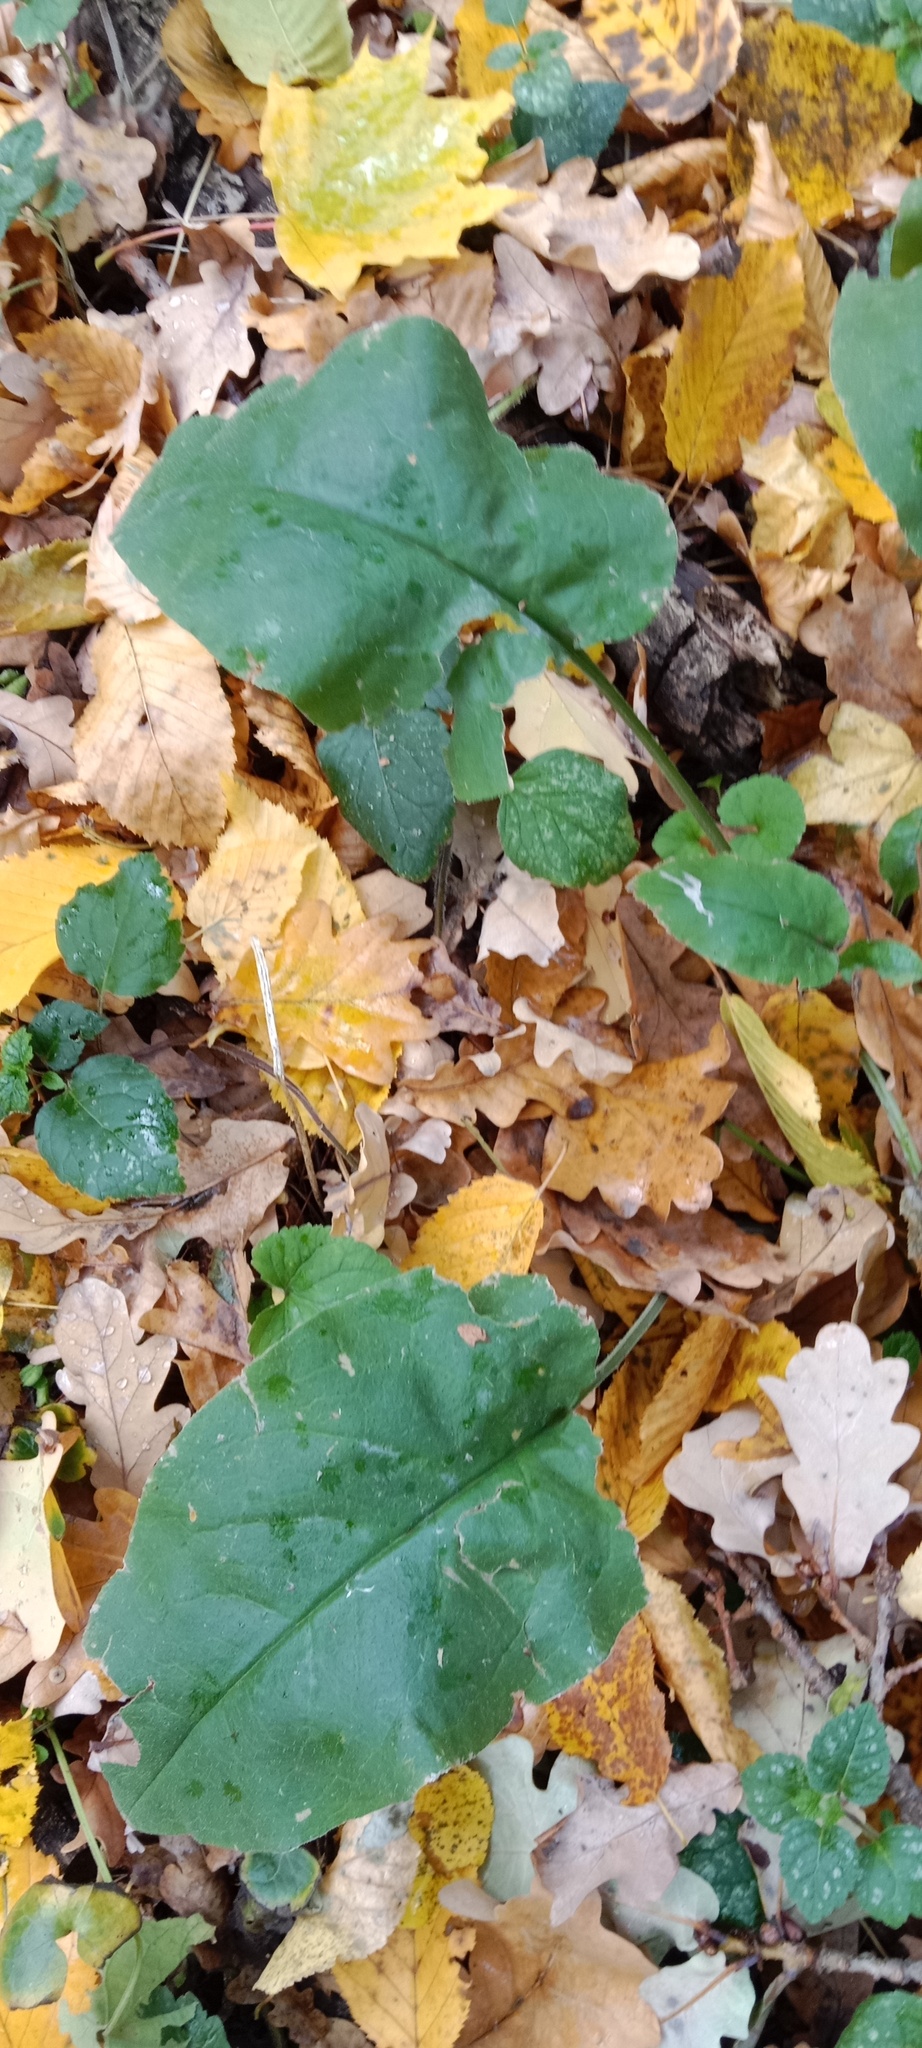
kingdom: Plantae
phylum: Tracheophyta
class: Magnoliopsida
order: Boraginales
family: Boraginaceae
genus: Pulmonaria
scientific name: Pulmonaria obscura
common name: Suffolk lungwort
